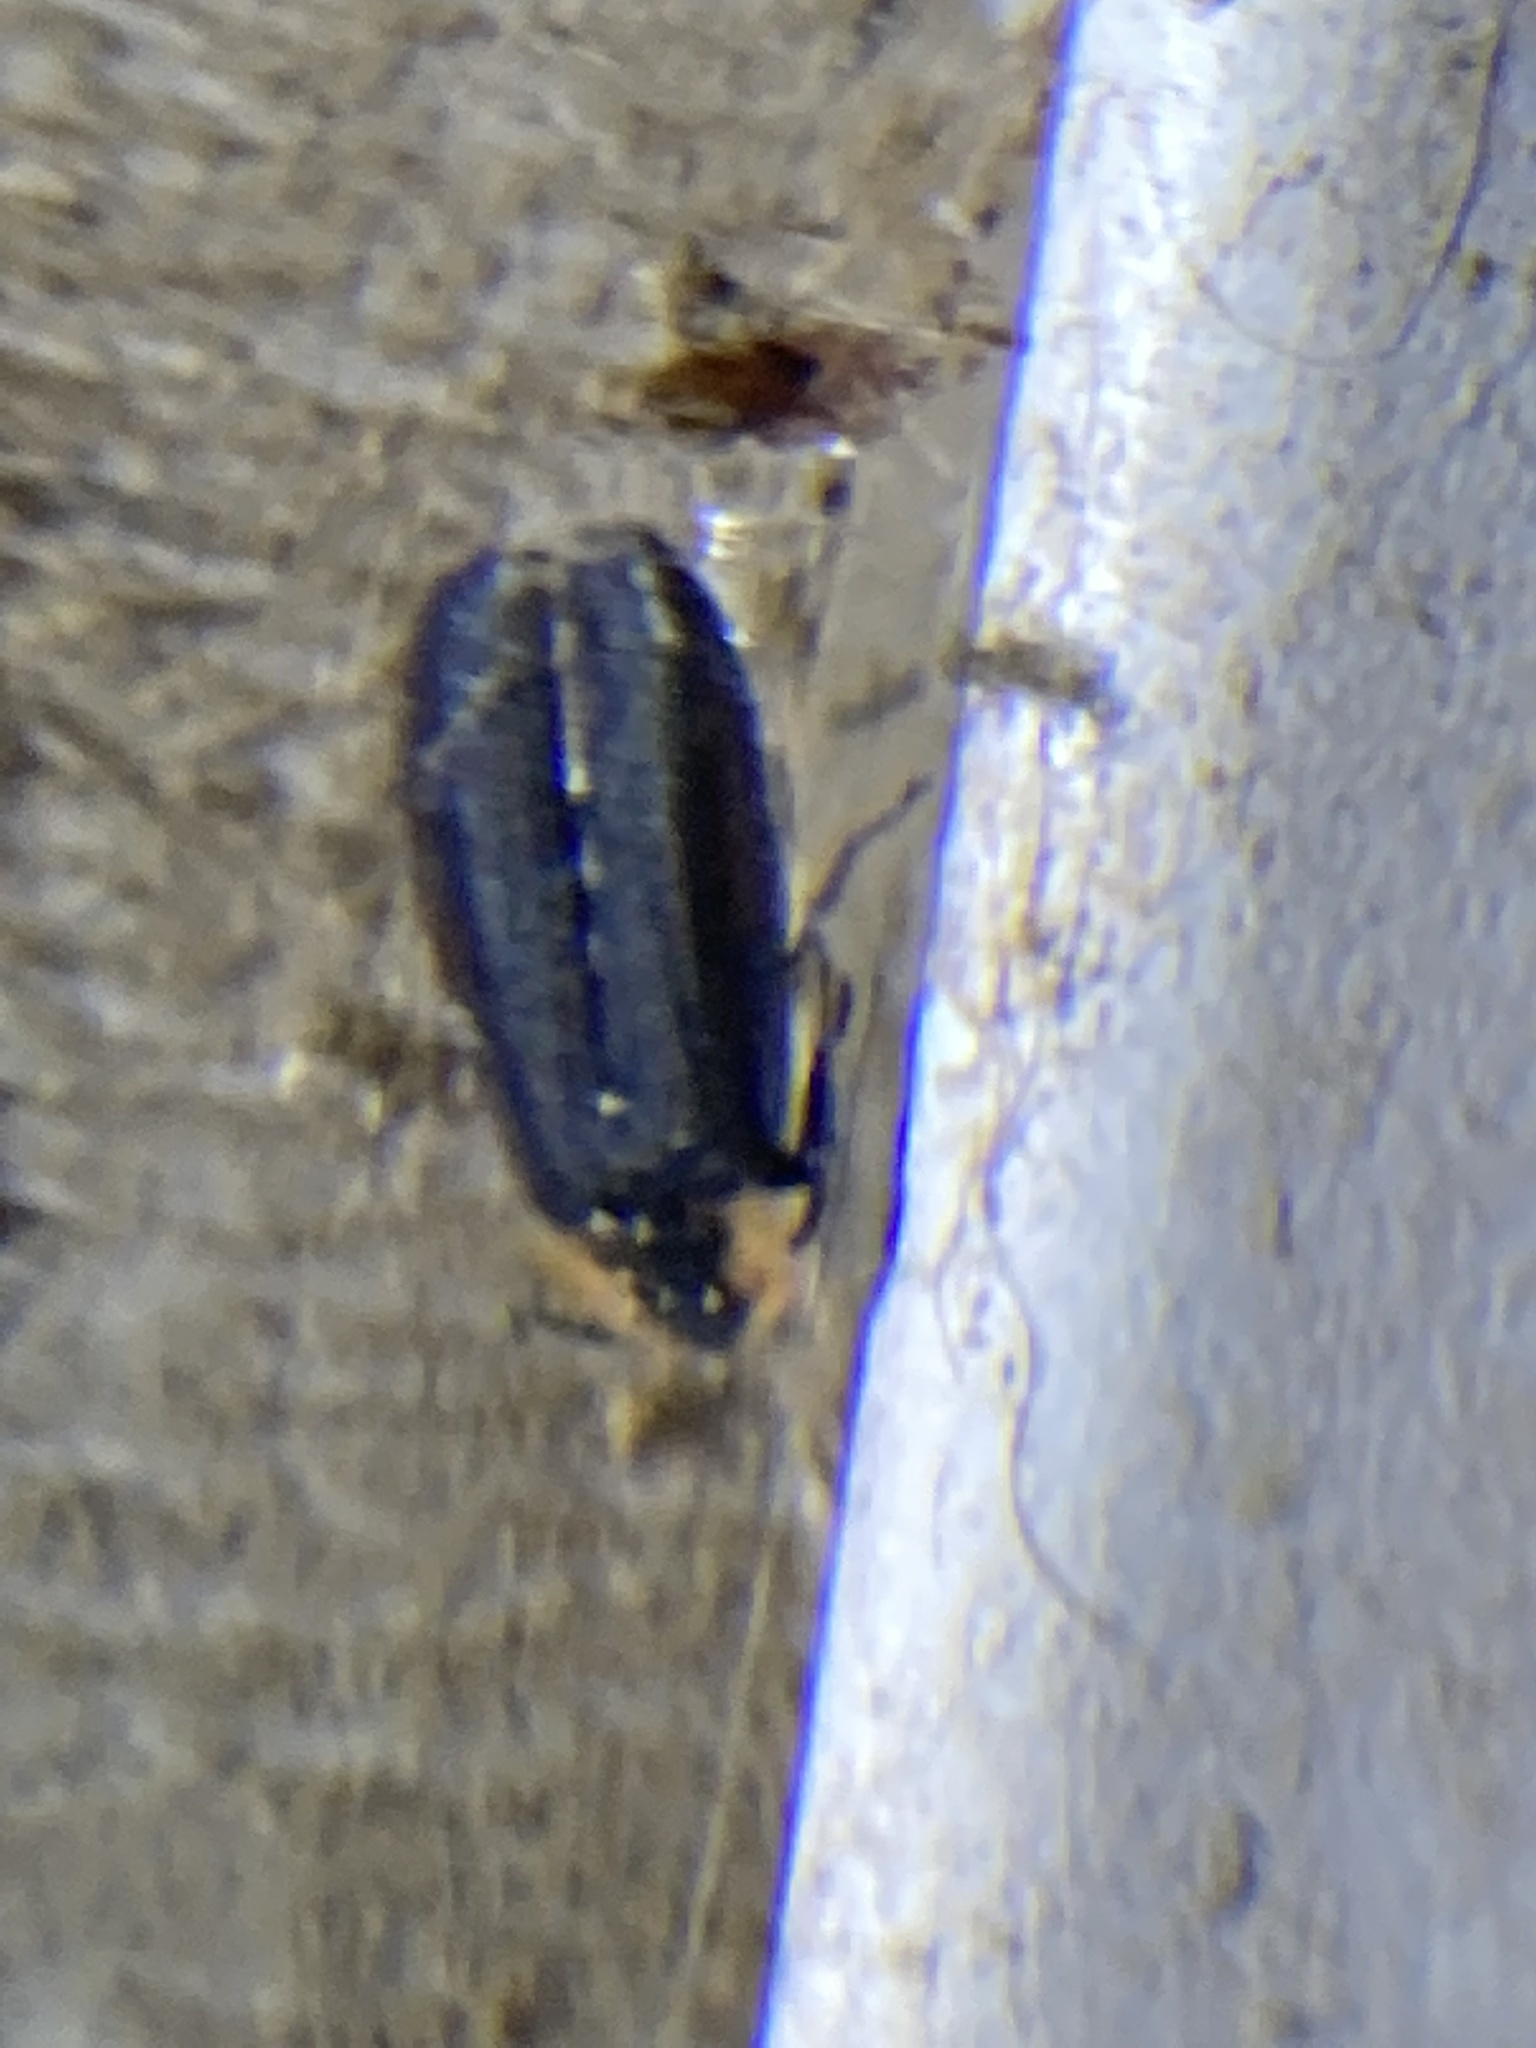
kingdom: Animalia
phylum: Arthropoda
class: Insecta
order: Coleoptera
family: Lampyridae
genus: Lucidota
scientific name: Lucidota atra
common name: Black firefly
